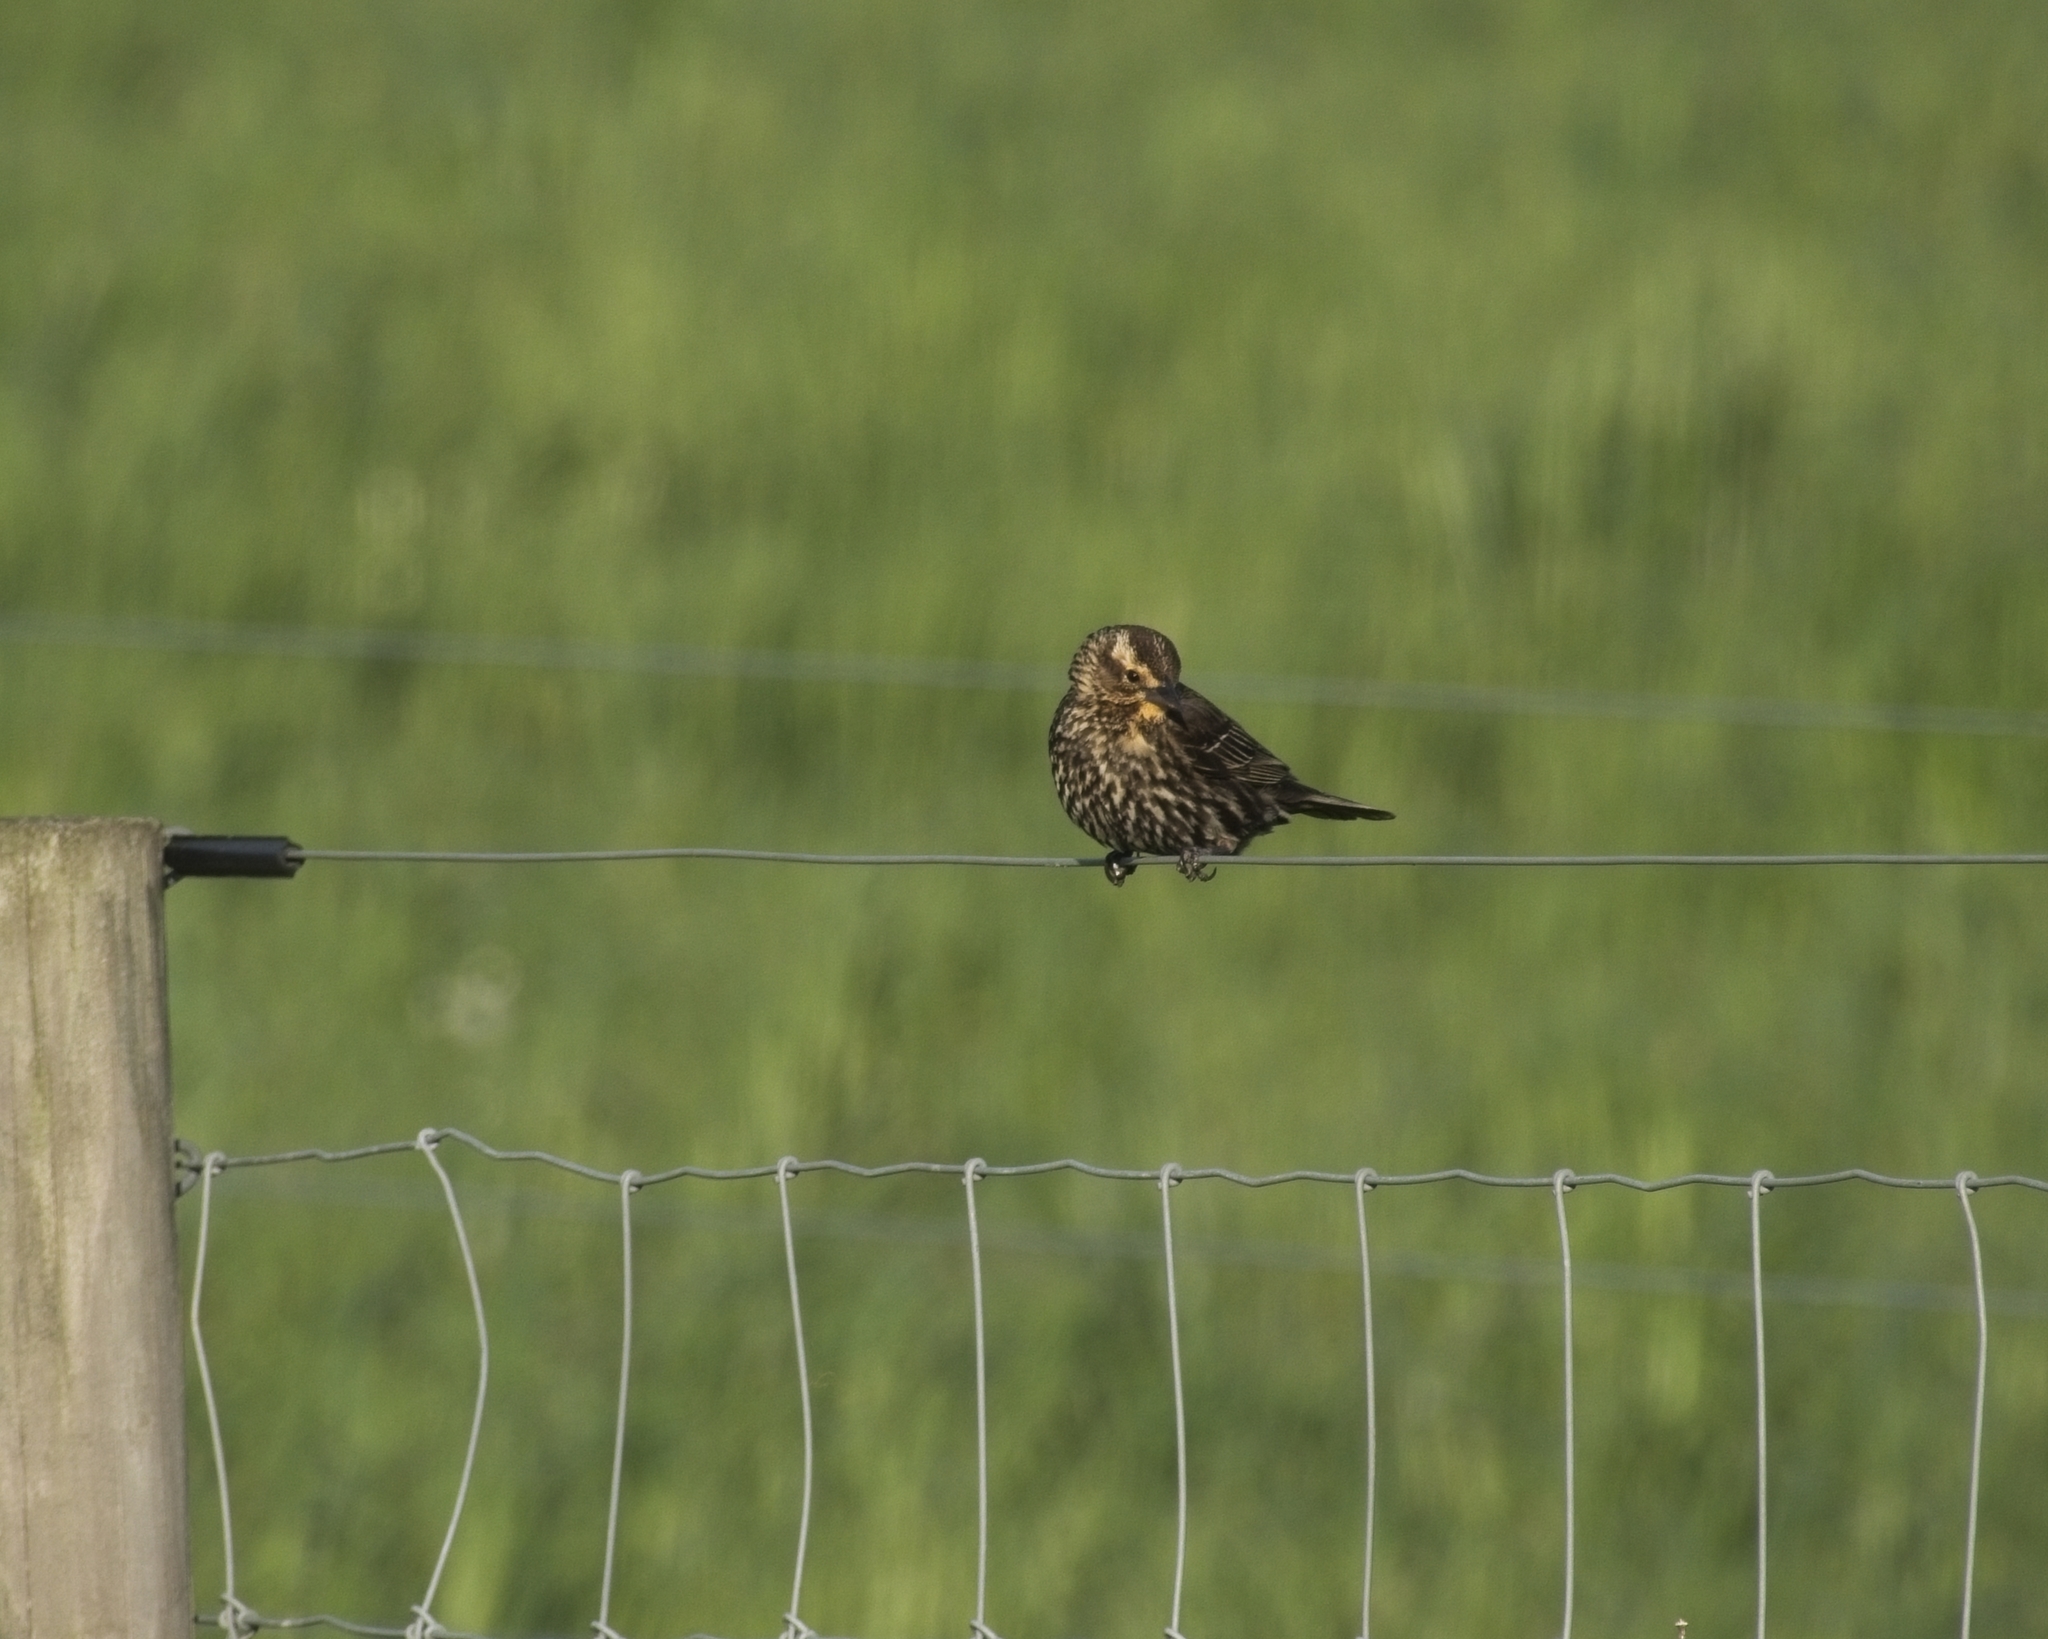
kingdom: Animalia
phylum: Chordata
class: Aves
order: Passeriformes
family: Icteridae
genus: Agelaius
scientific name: Agelaius phoeniceus
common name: Red-winged blackbird
